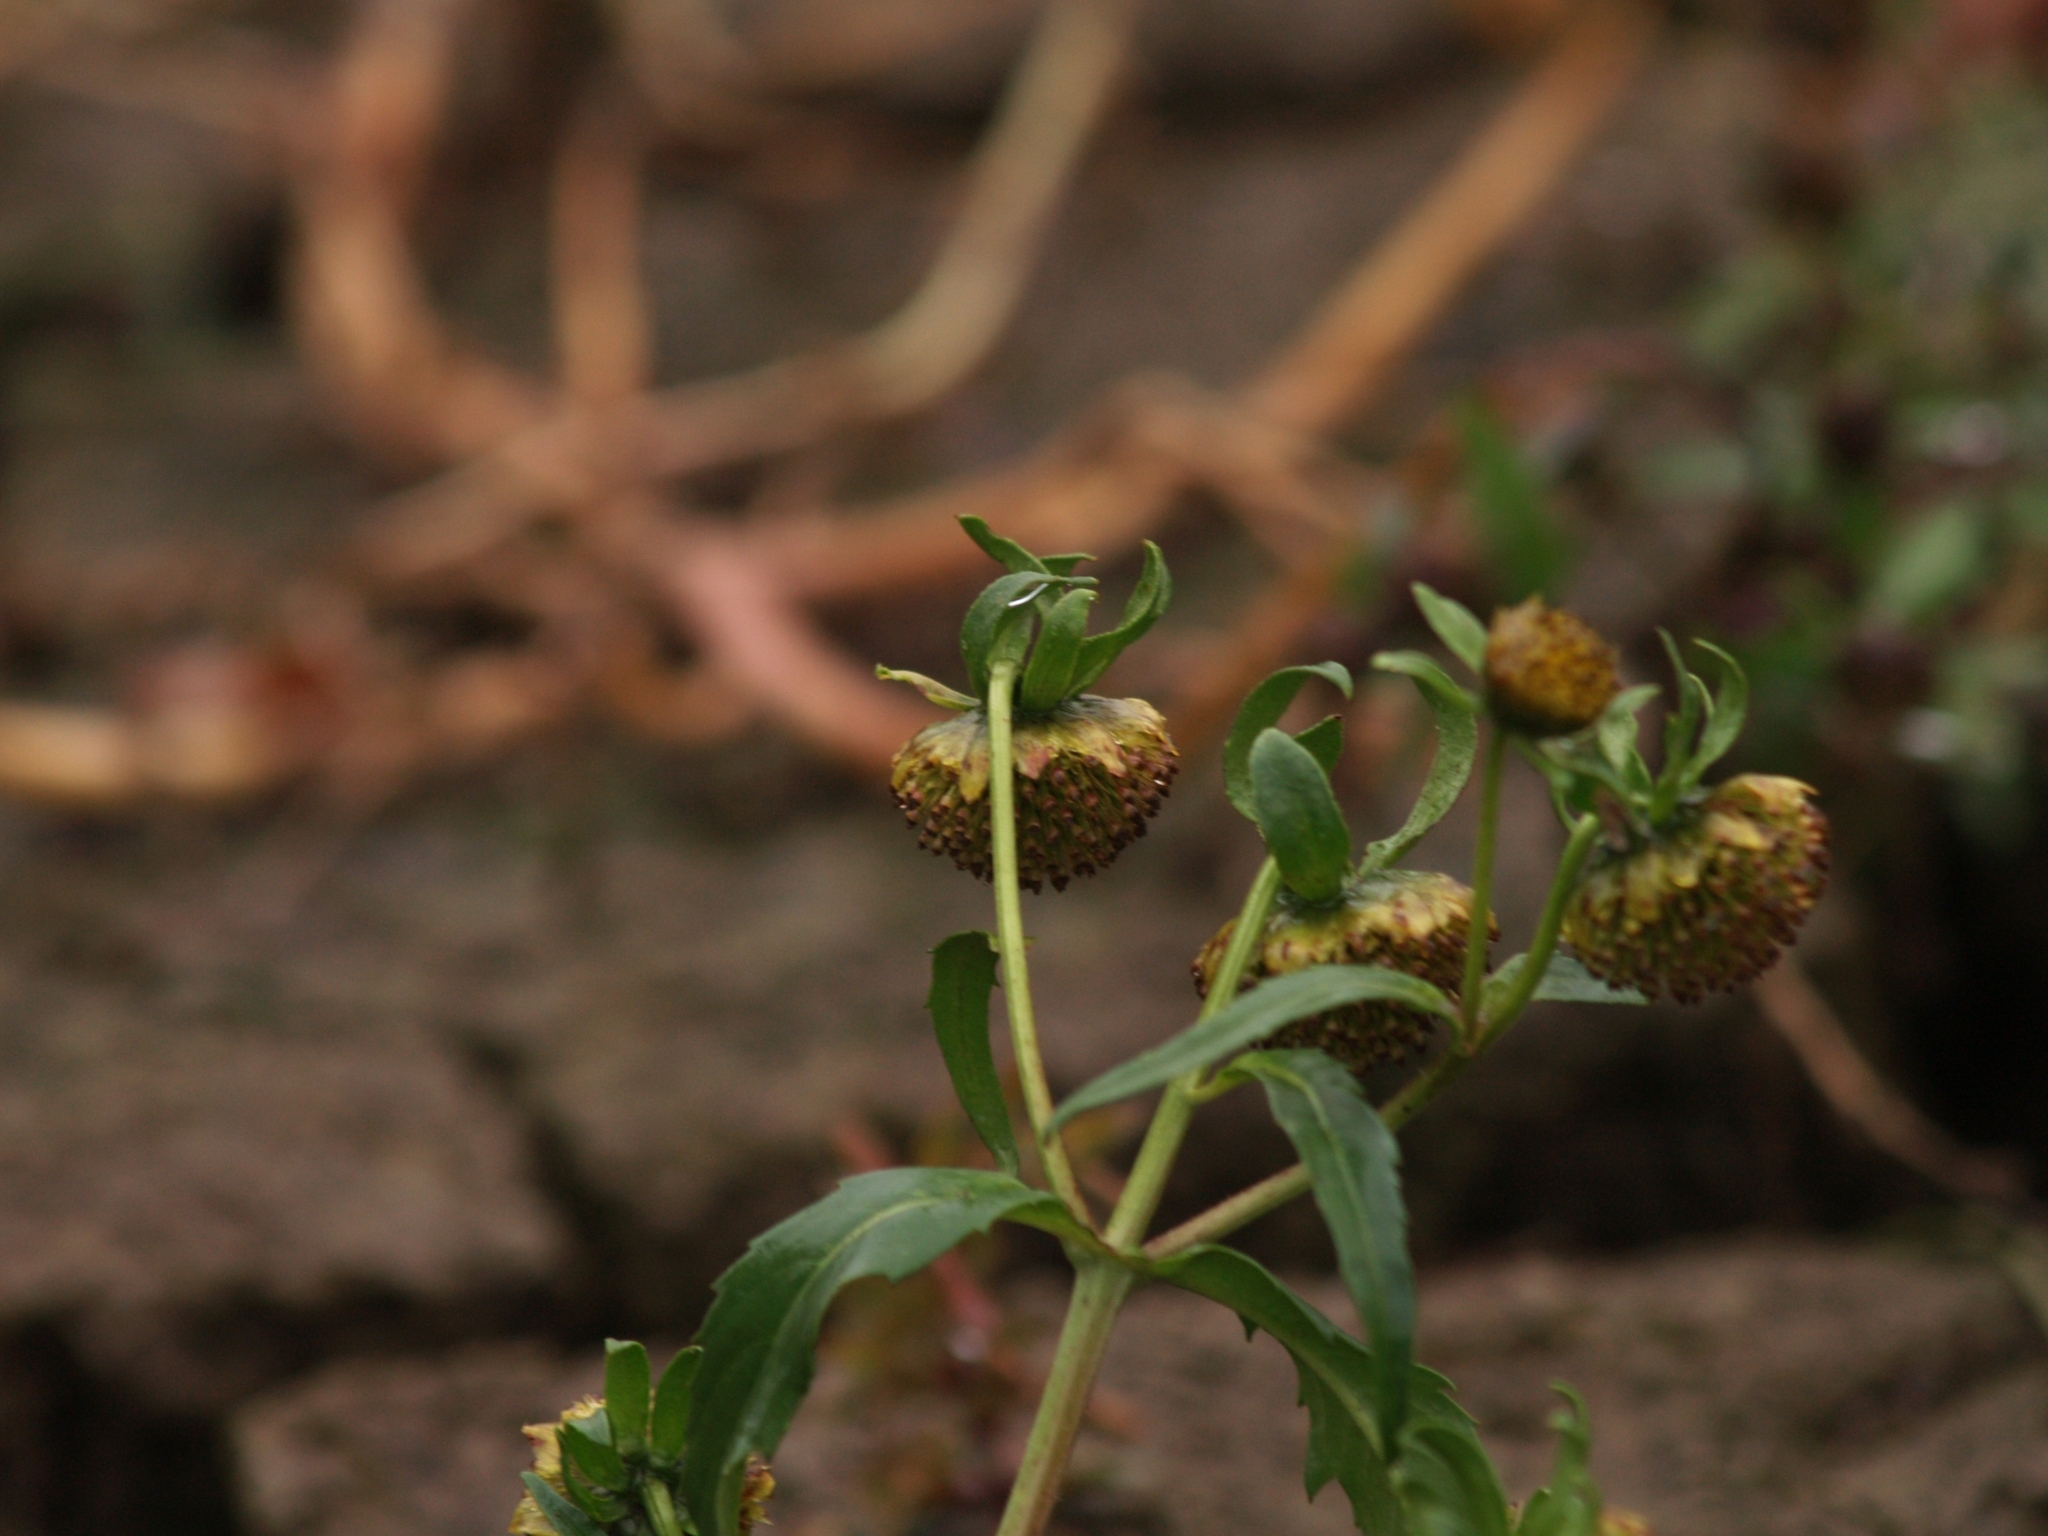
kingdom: Plantae
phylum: Tracheophyta
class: Magnoliopsida
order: Asterales
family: Asteraceae
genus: Bidens
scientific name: Bidens cernua
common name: Nodding bur-marigold
